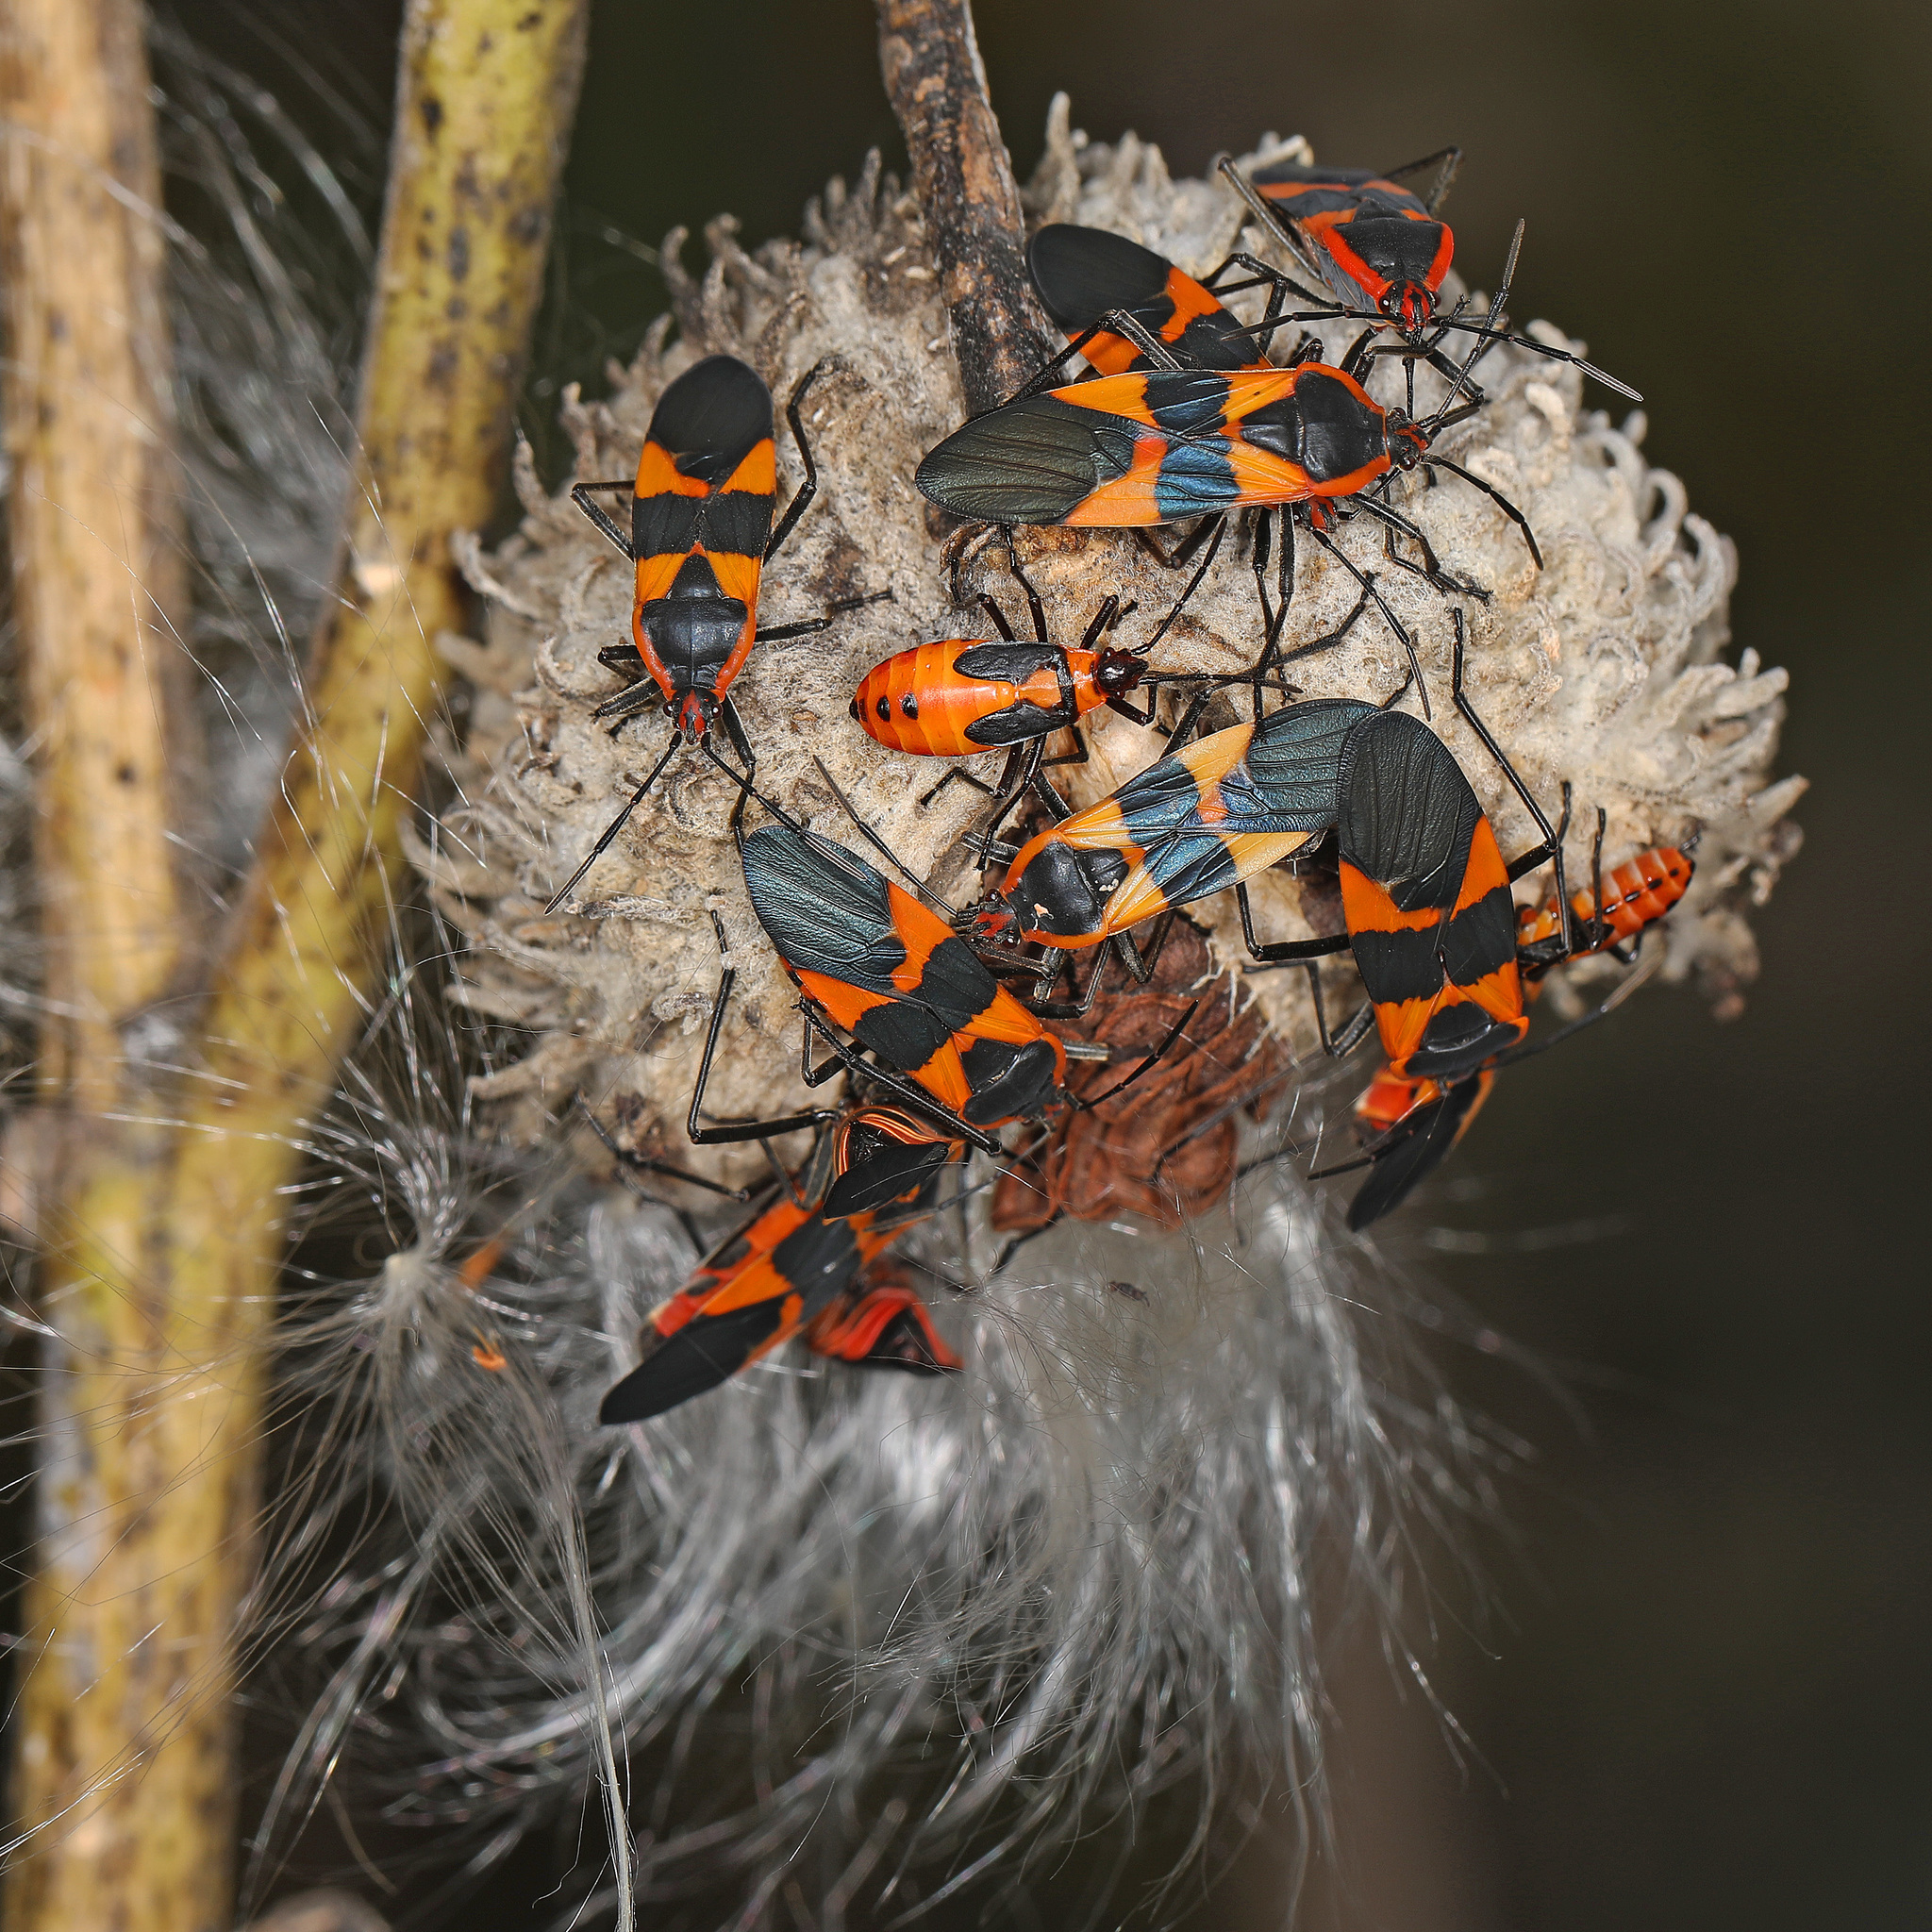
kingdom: Animalia
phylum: Arthropoda
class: Insecta
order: Hemiptera
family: Lygaeidae
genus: Oncopeltus
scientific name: Oncopeltus fasciatus
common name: Large milkweed bug
